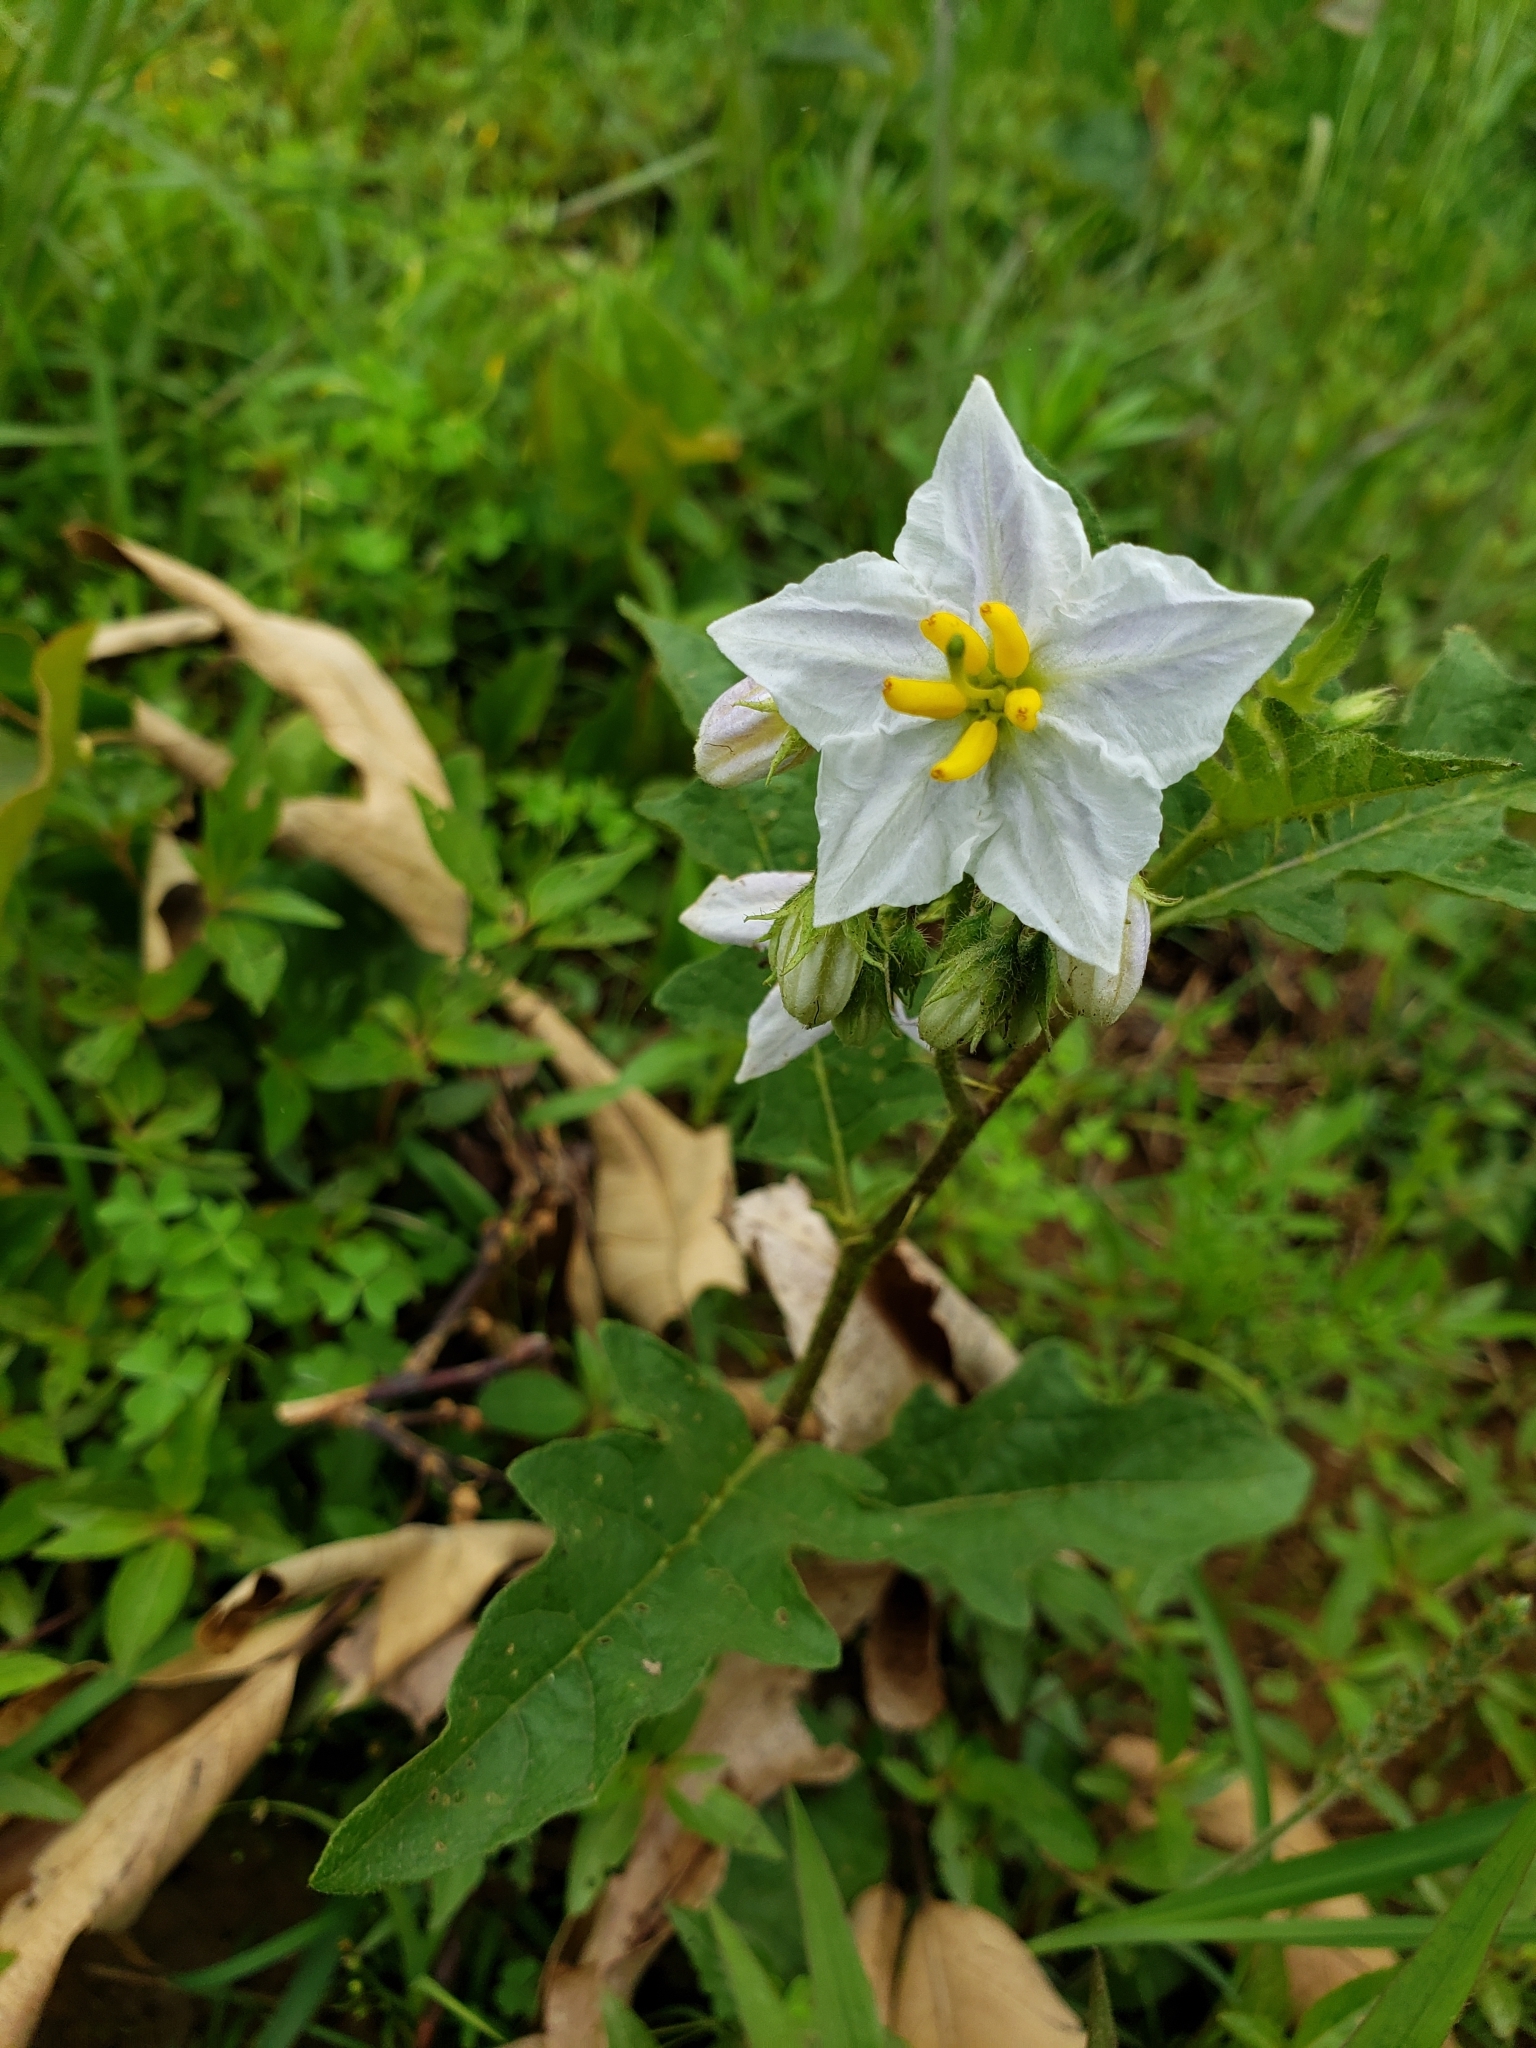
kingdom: Plantae
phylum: Tracheophyta
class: Magnoliopsida
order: Solanales
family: Solanaceae
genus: Solanum
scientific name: Solanum carolinense
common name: Horse-nettle
